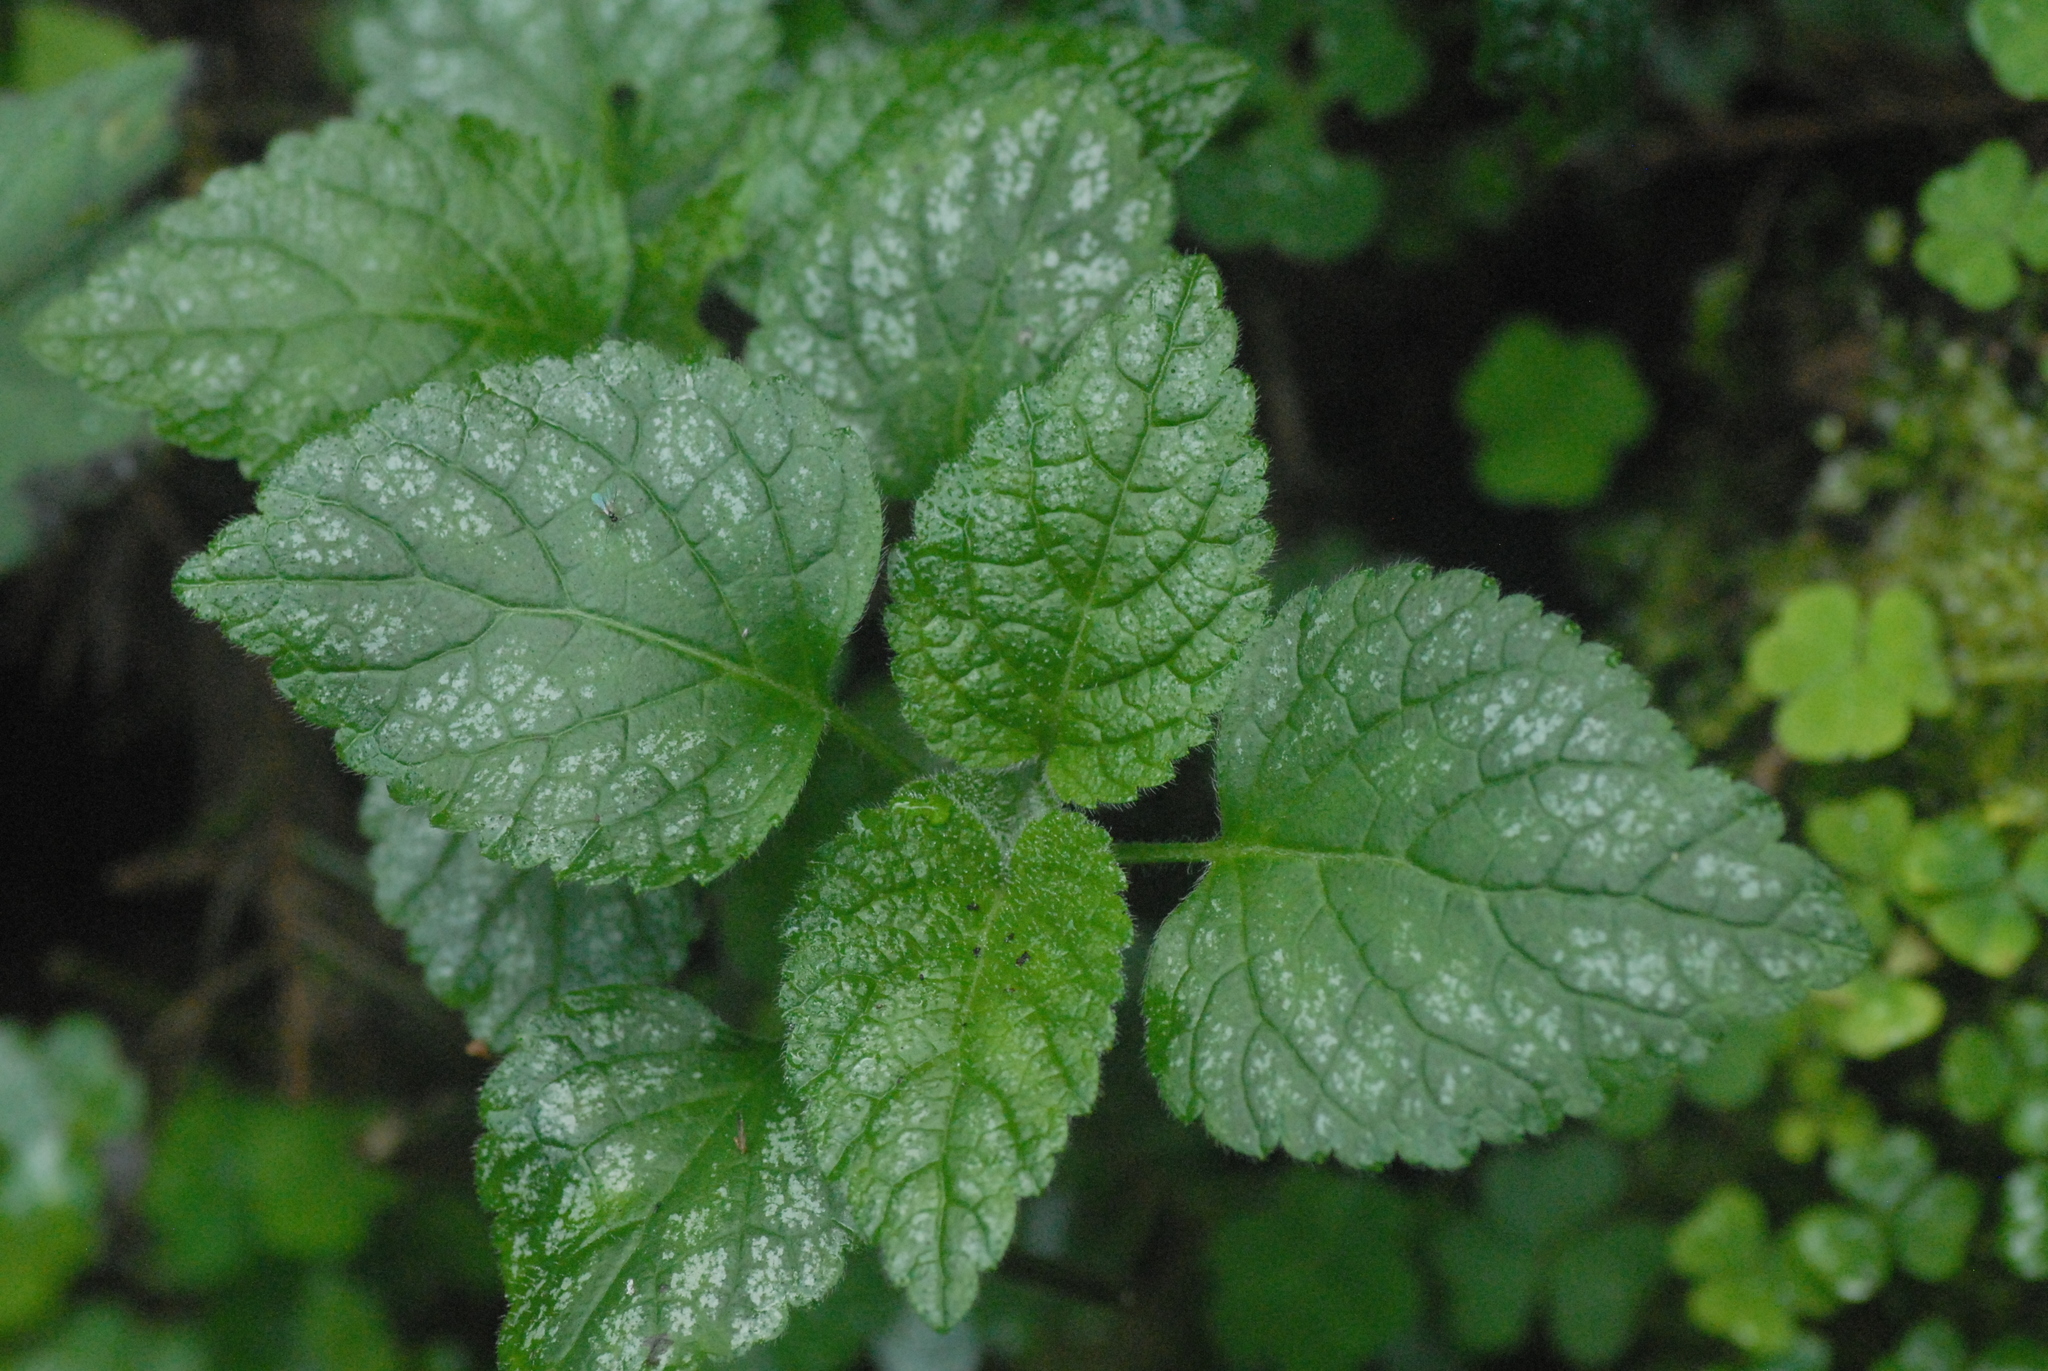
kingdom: Plantae
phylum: Tracheophyta
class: Magnoliopsida
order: Lamiales
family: Lamiaceae
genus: Lamium
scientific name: Lamium galeobdolon
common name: Yellow archangel
